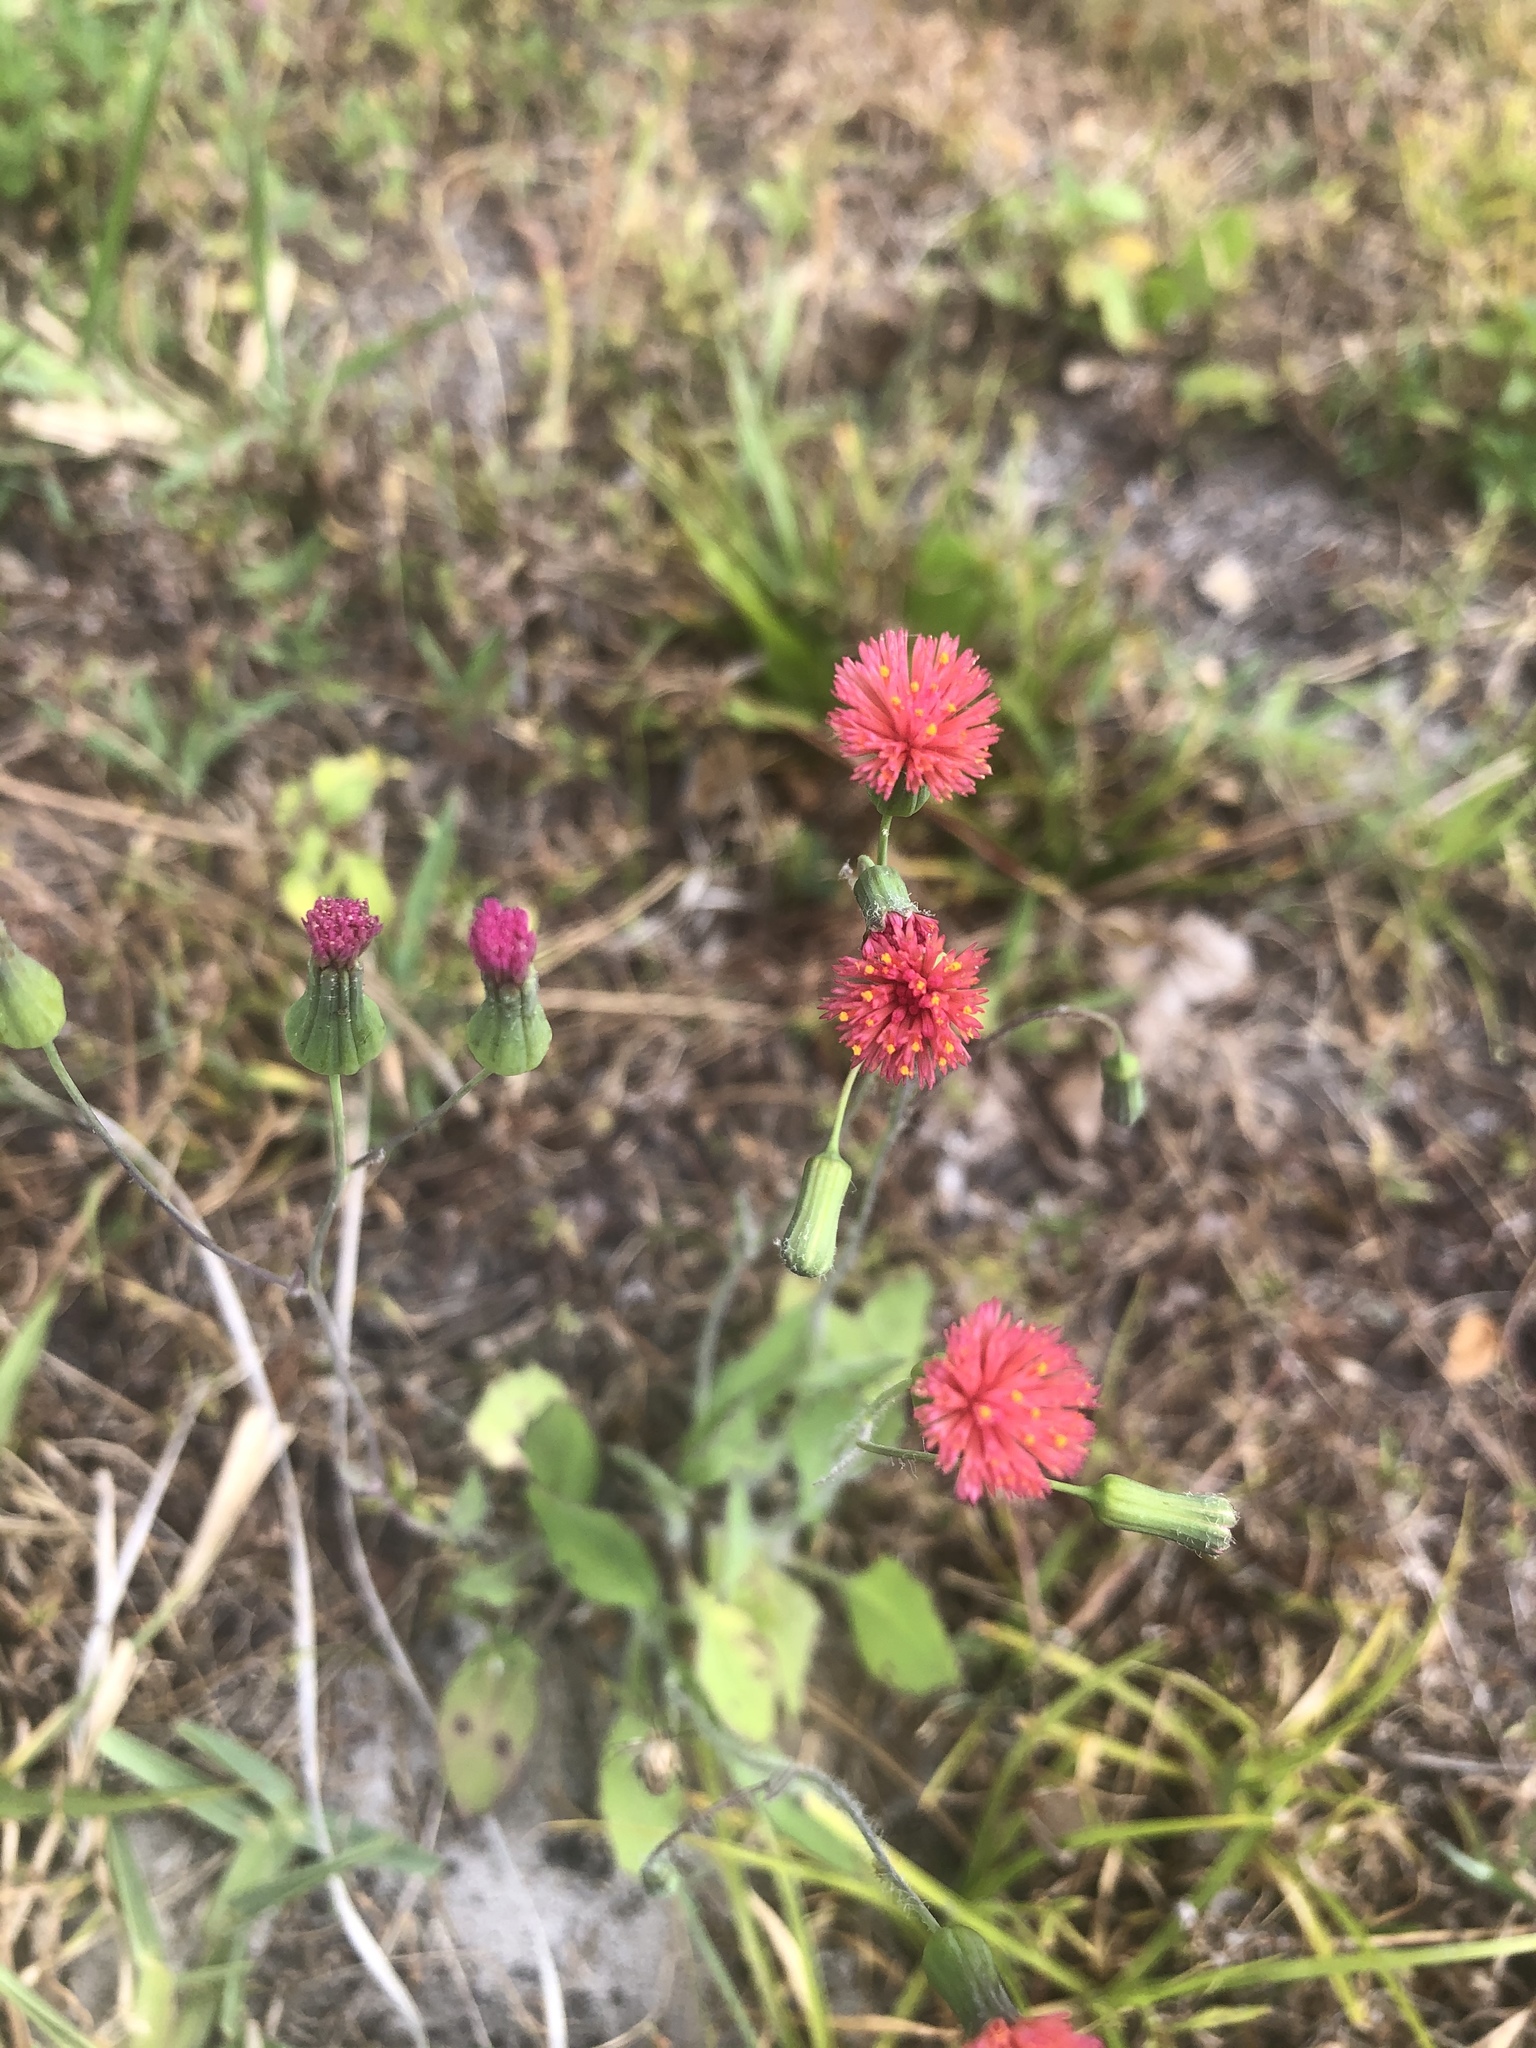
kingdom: Plantae
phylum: Tracheophyta
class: Magnoliopsida
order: Asterales
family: Asteraceae
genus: Emilia
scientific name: Emilia fosbergii
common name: Florida tasselflower
